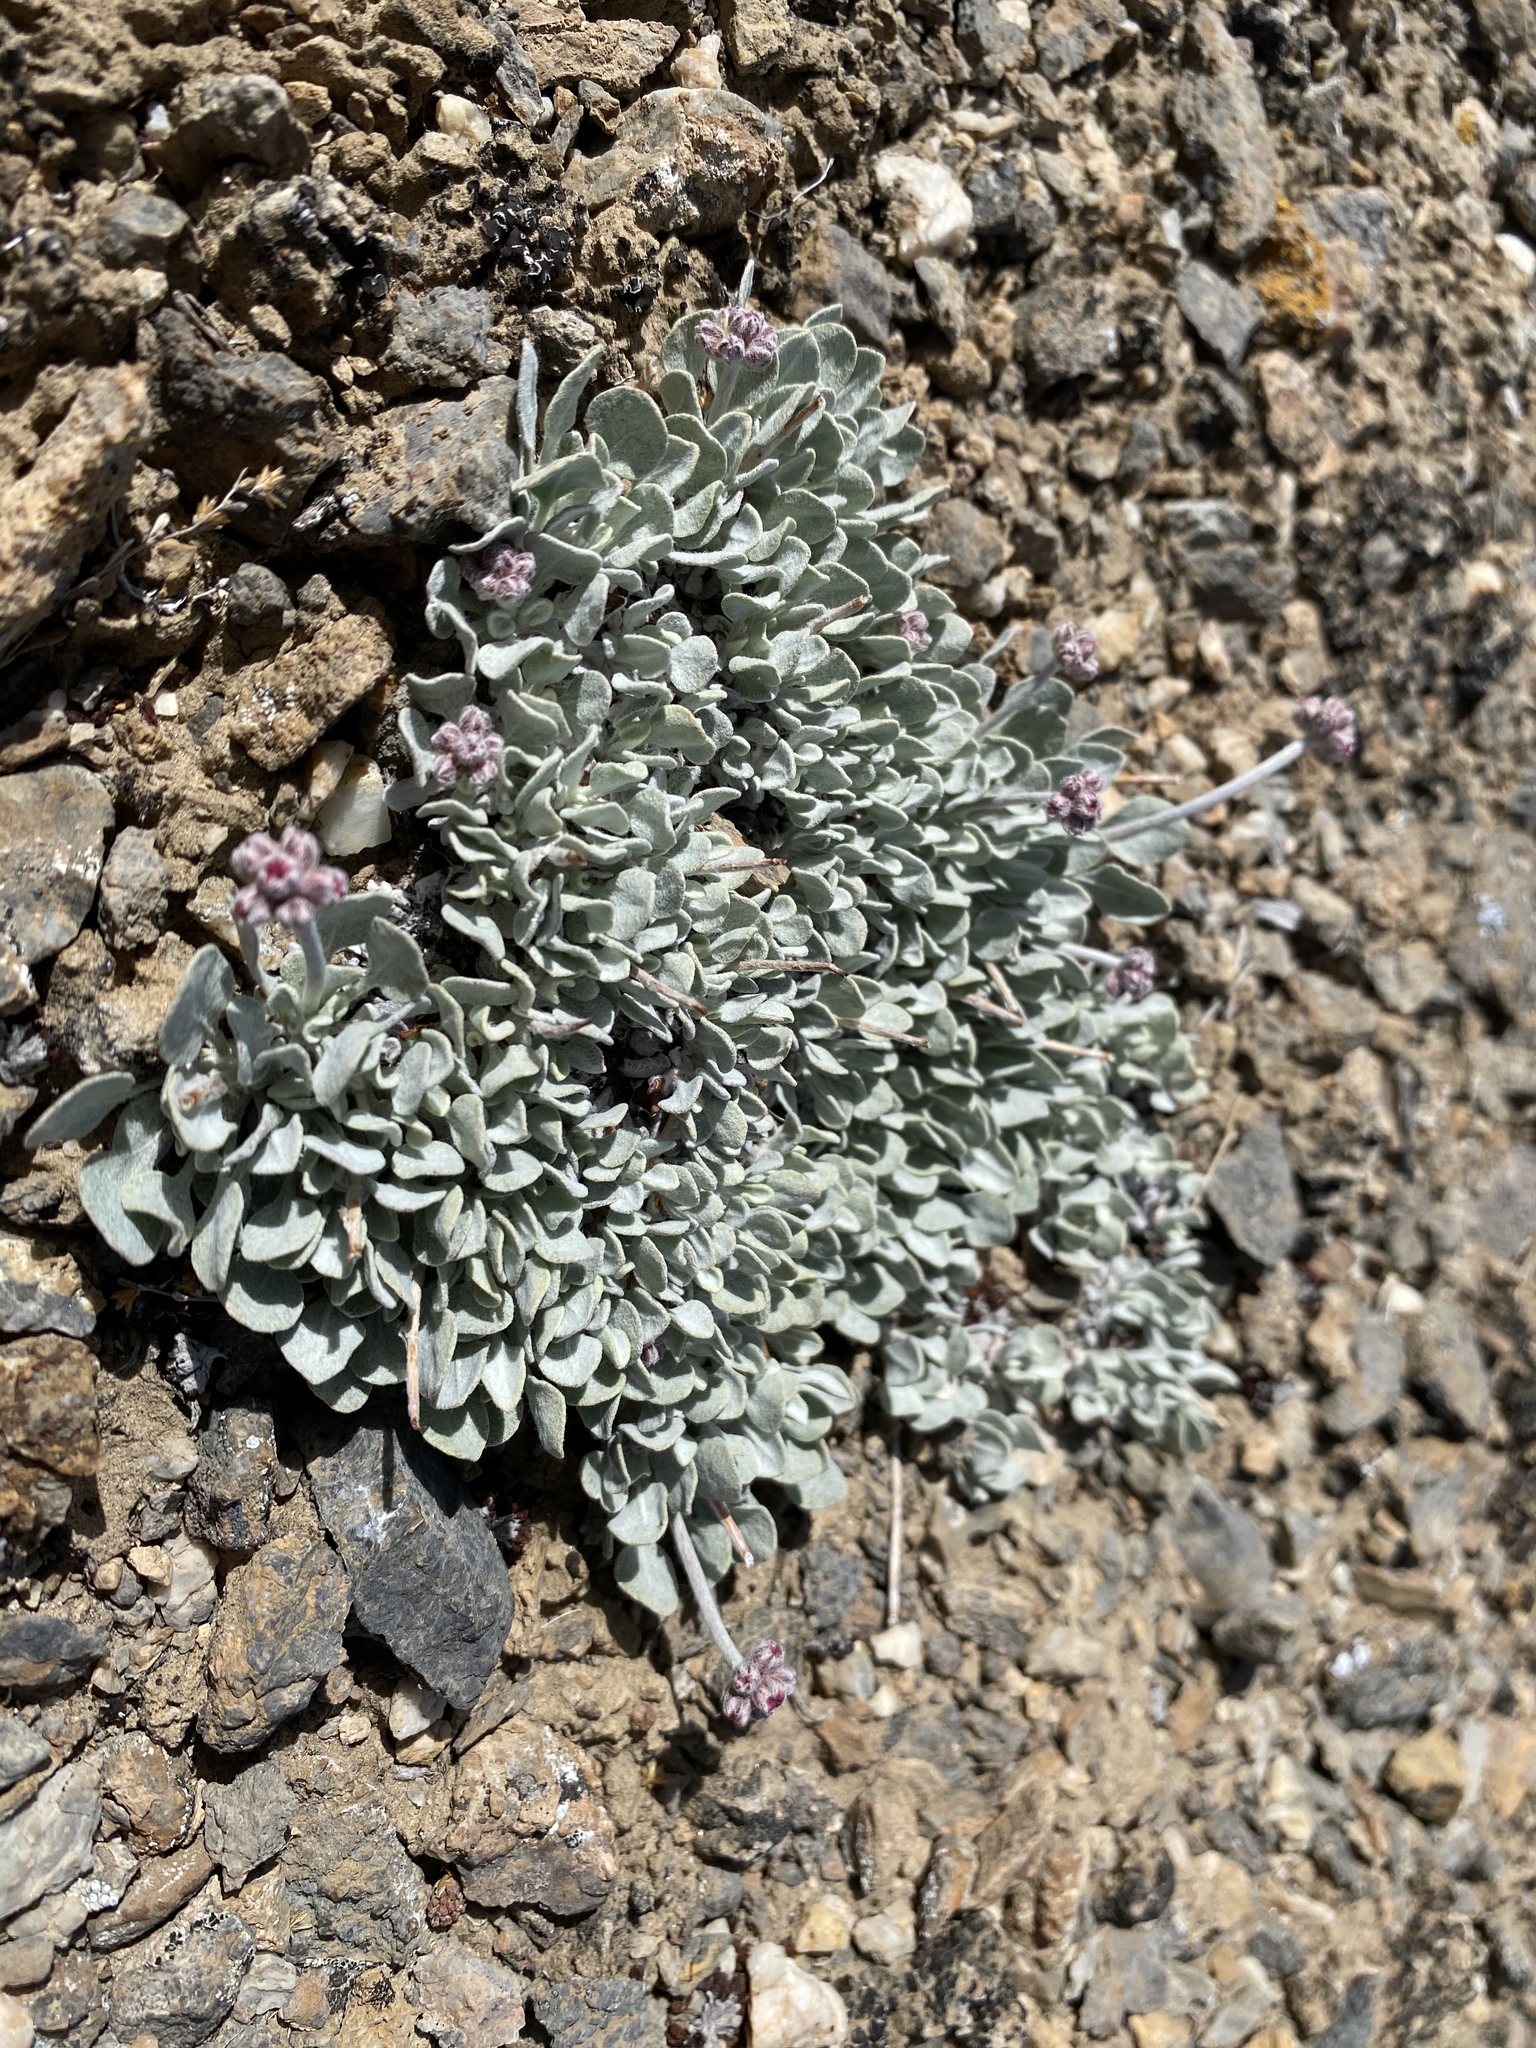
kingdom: Plantae
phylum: Tracheophyta
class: Magnoliopsida
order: Caryophyllales
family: Polygonaceae
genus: Eriogonum
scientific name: Eriogonum ovalifolium
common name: Cushion buckwheat
